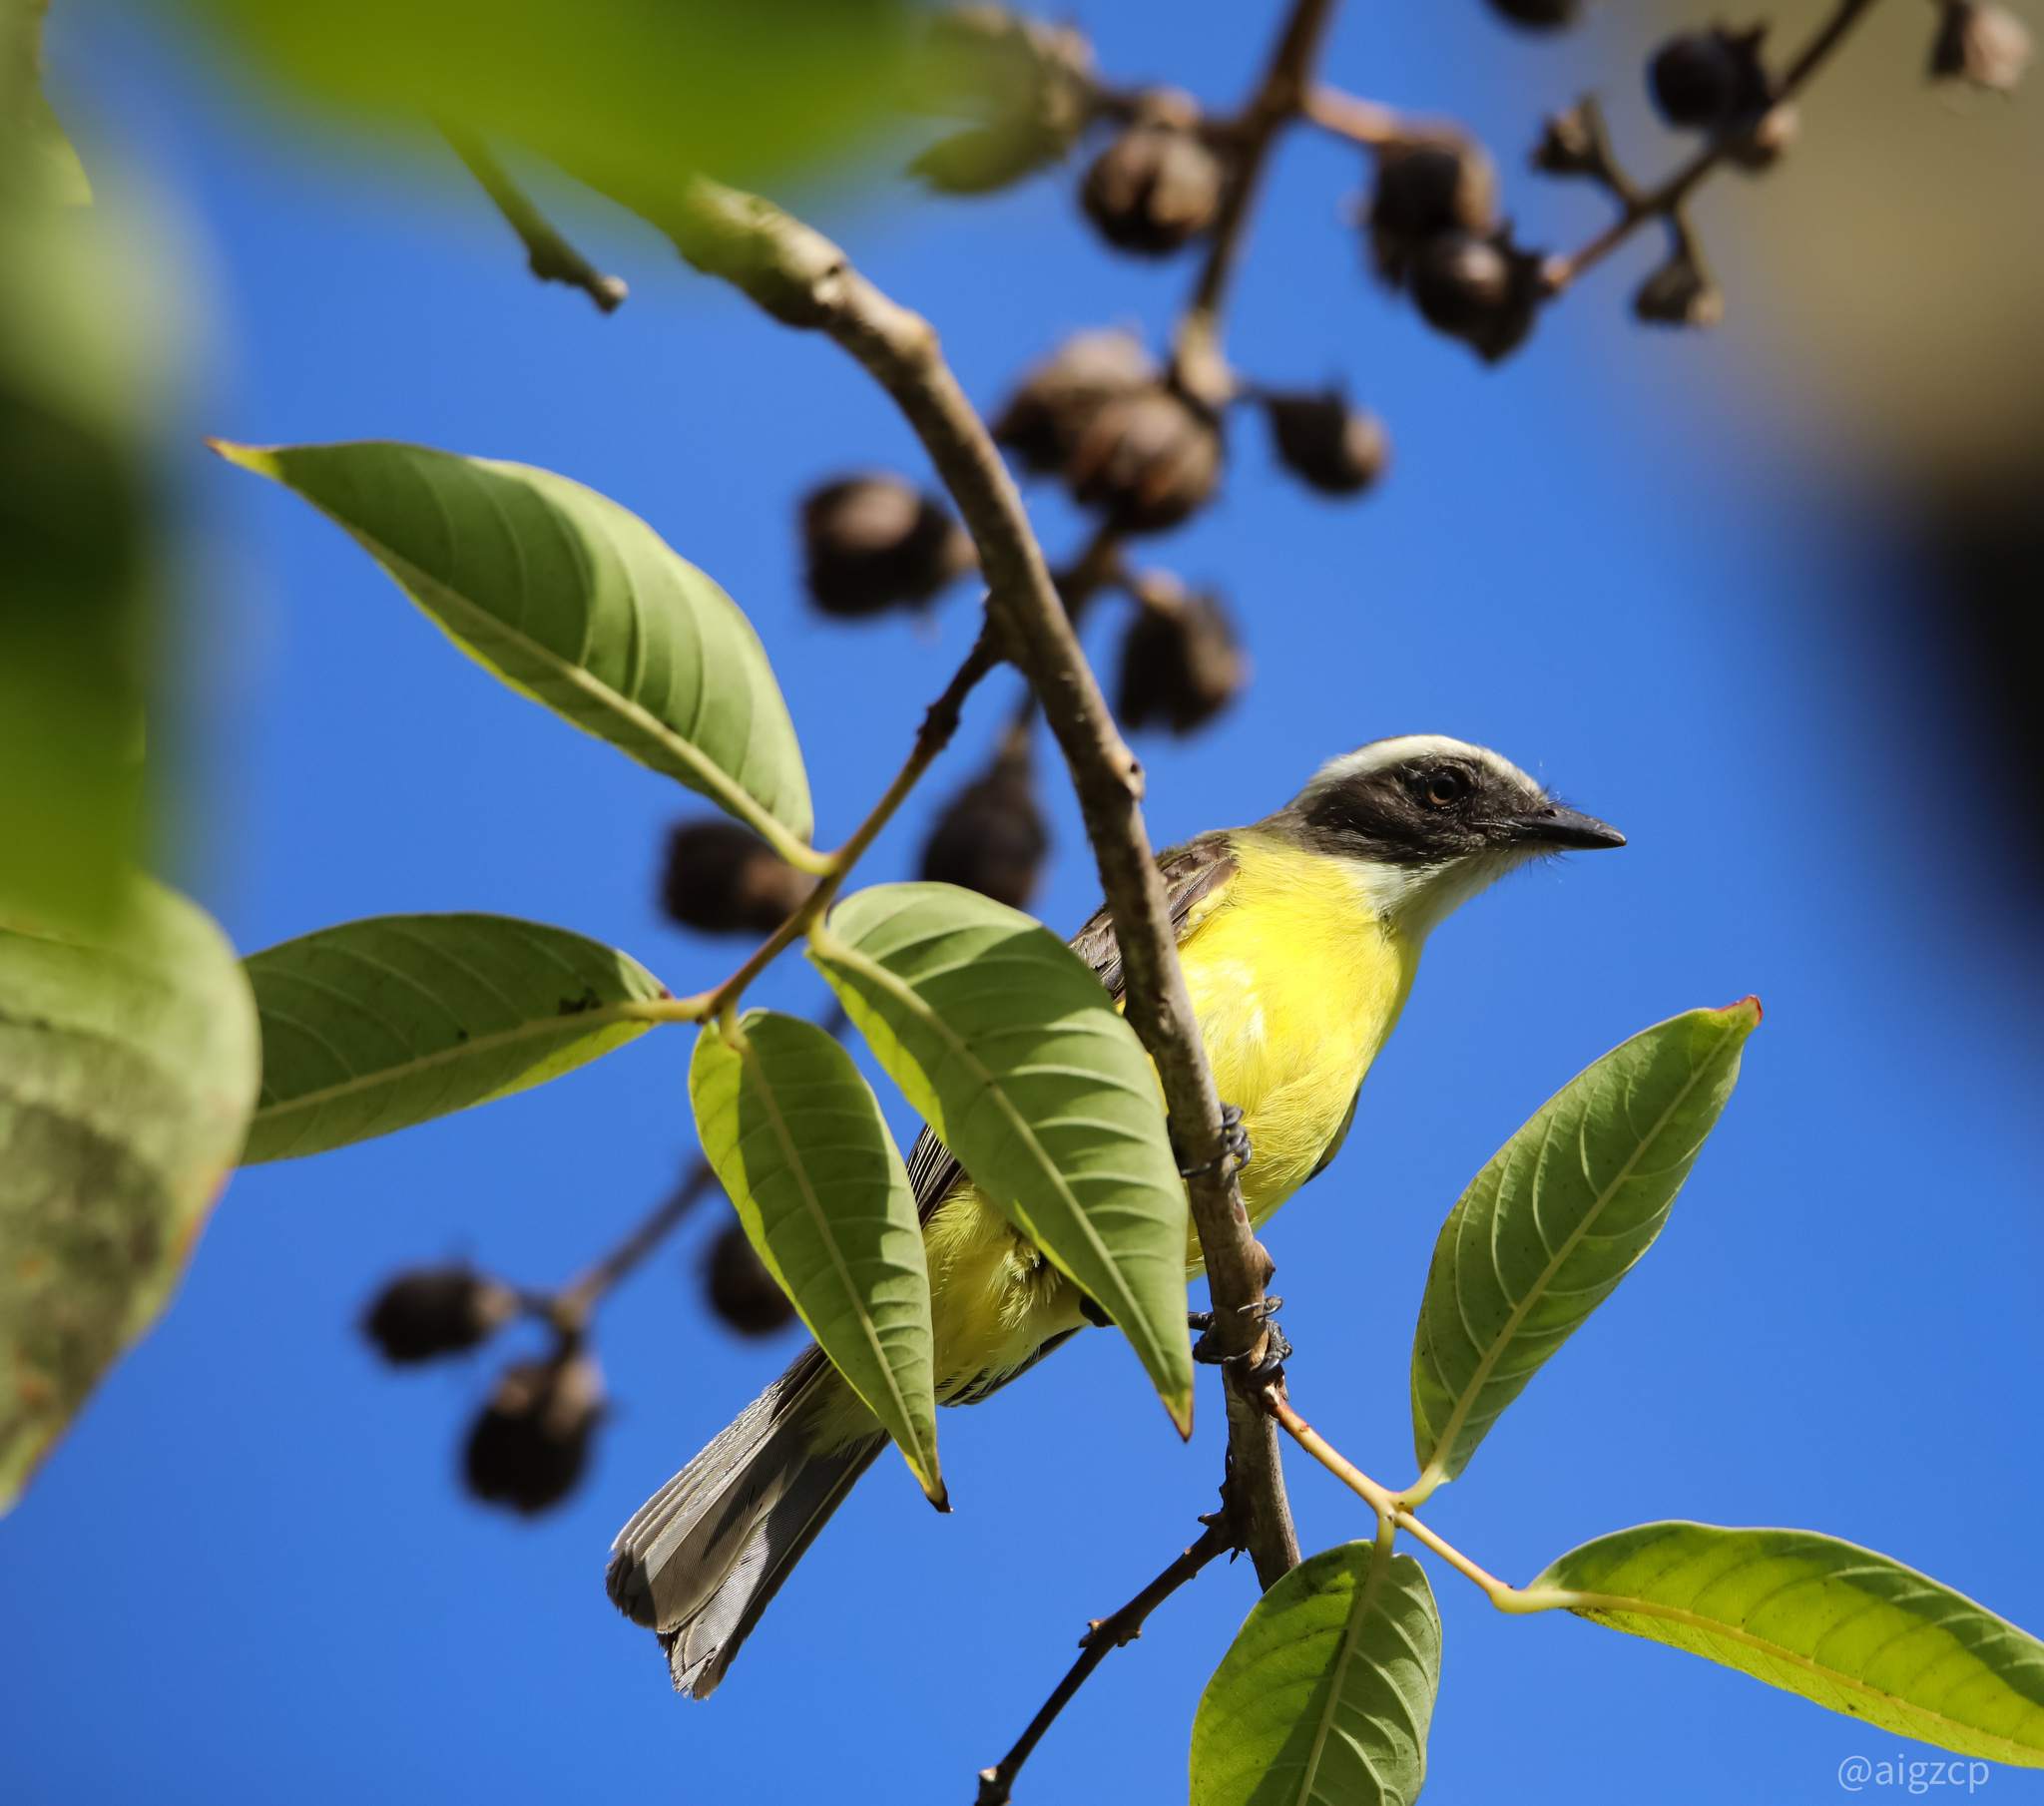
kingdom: Animalia
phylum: Chordata
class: Aves
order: Passeriformes
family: Tyrannidae
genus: Myiozetetes
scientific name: Myiozetetes similis
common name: Social flycatcher
